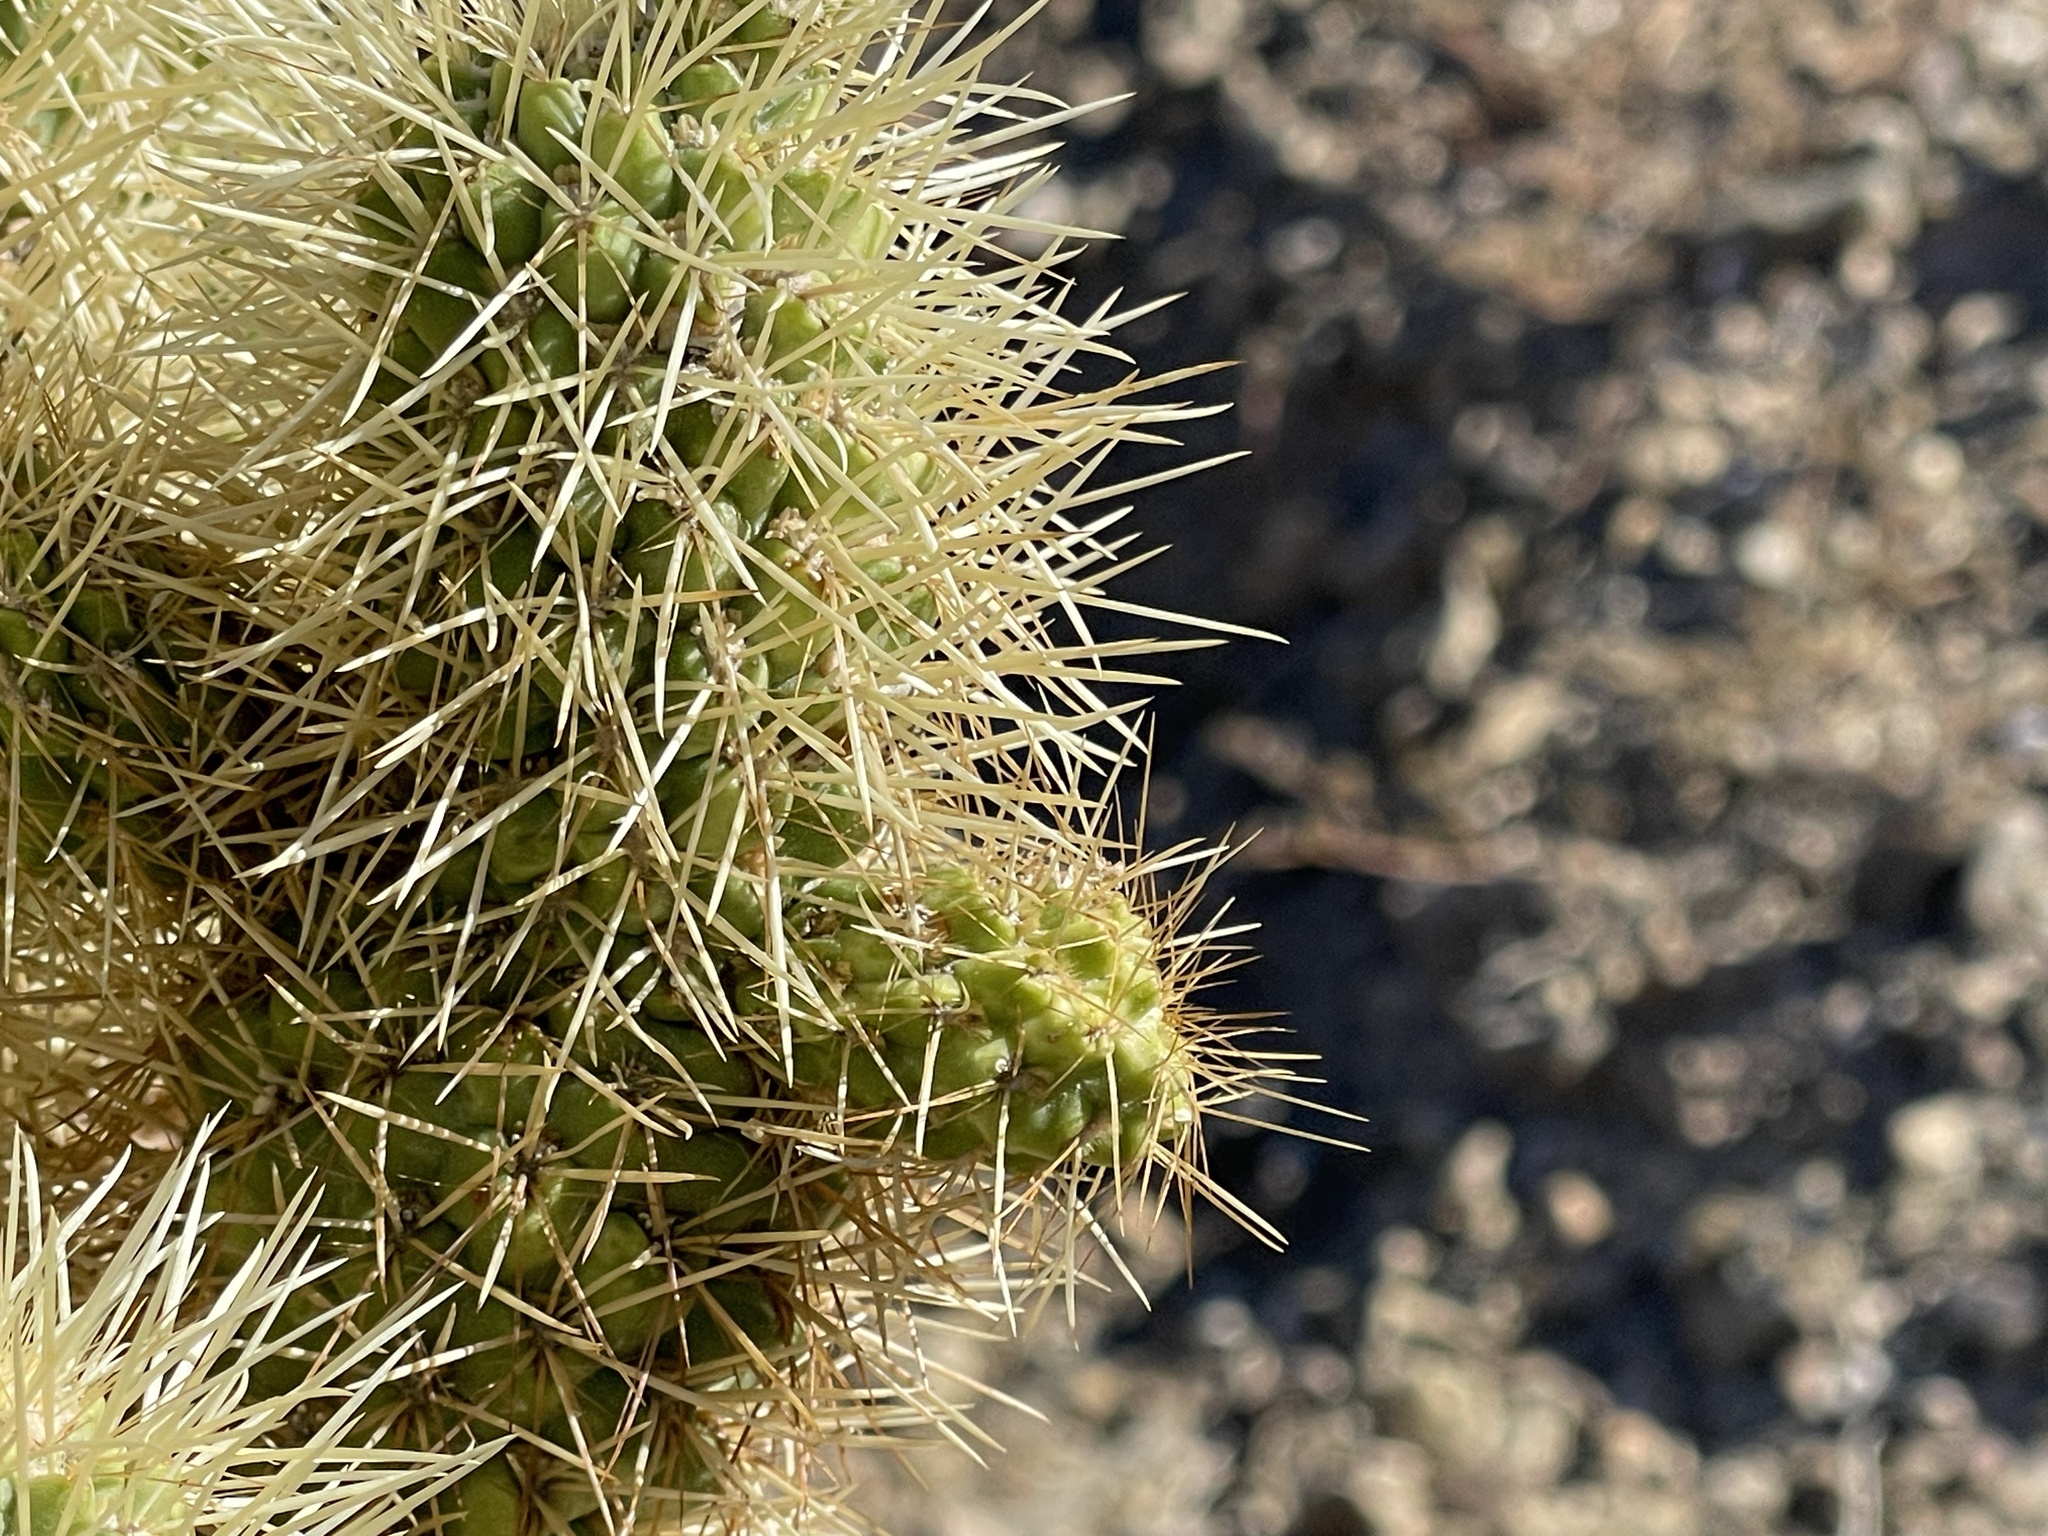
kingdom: Plantae
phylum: Tracheophyta
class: Magnoliopsida
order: Caryophyllales
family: Cactaceae
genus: Cylindropuntia
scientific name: Cylindropuntia fosbergii
